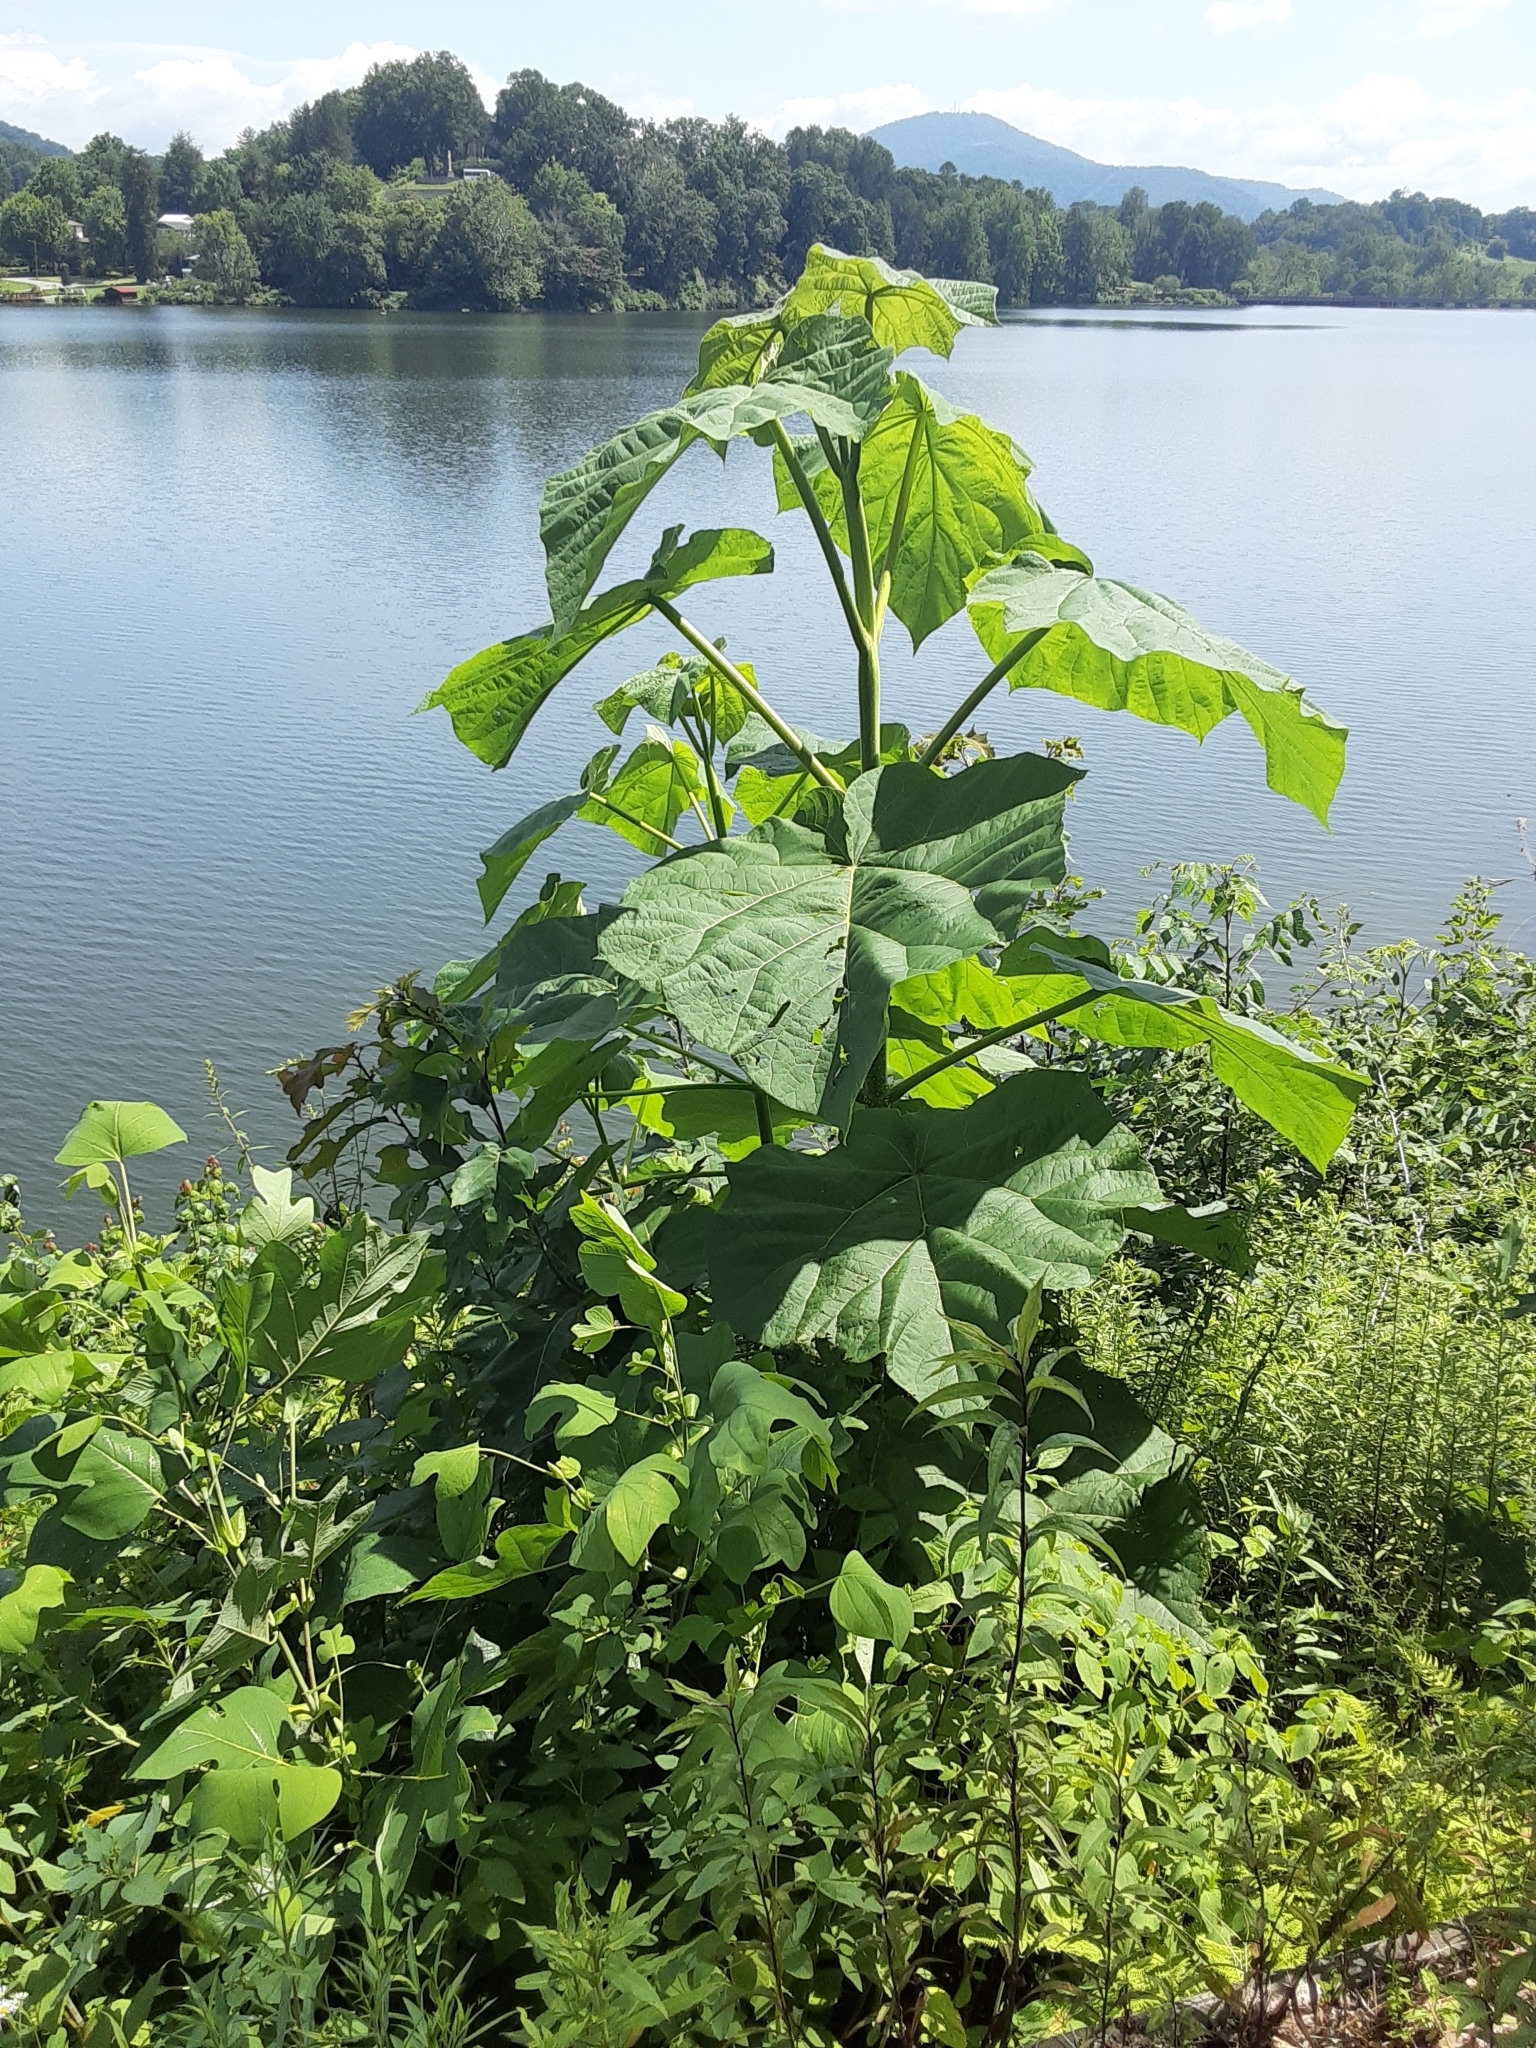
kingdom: Plantae
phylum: Tracheophyta
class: Magnoliopsida
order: Lamiales
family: Paulowniaceae
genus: Paulownia
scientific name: Paulownia tomentosa
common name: Foxglove-tree
